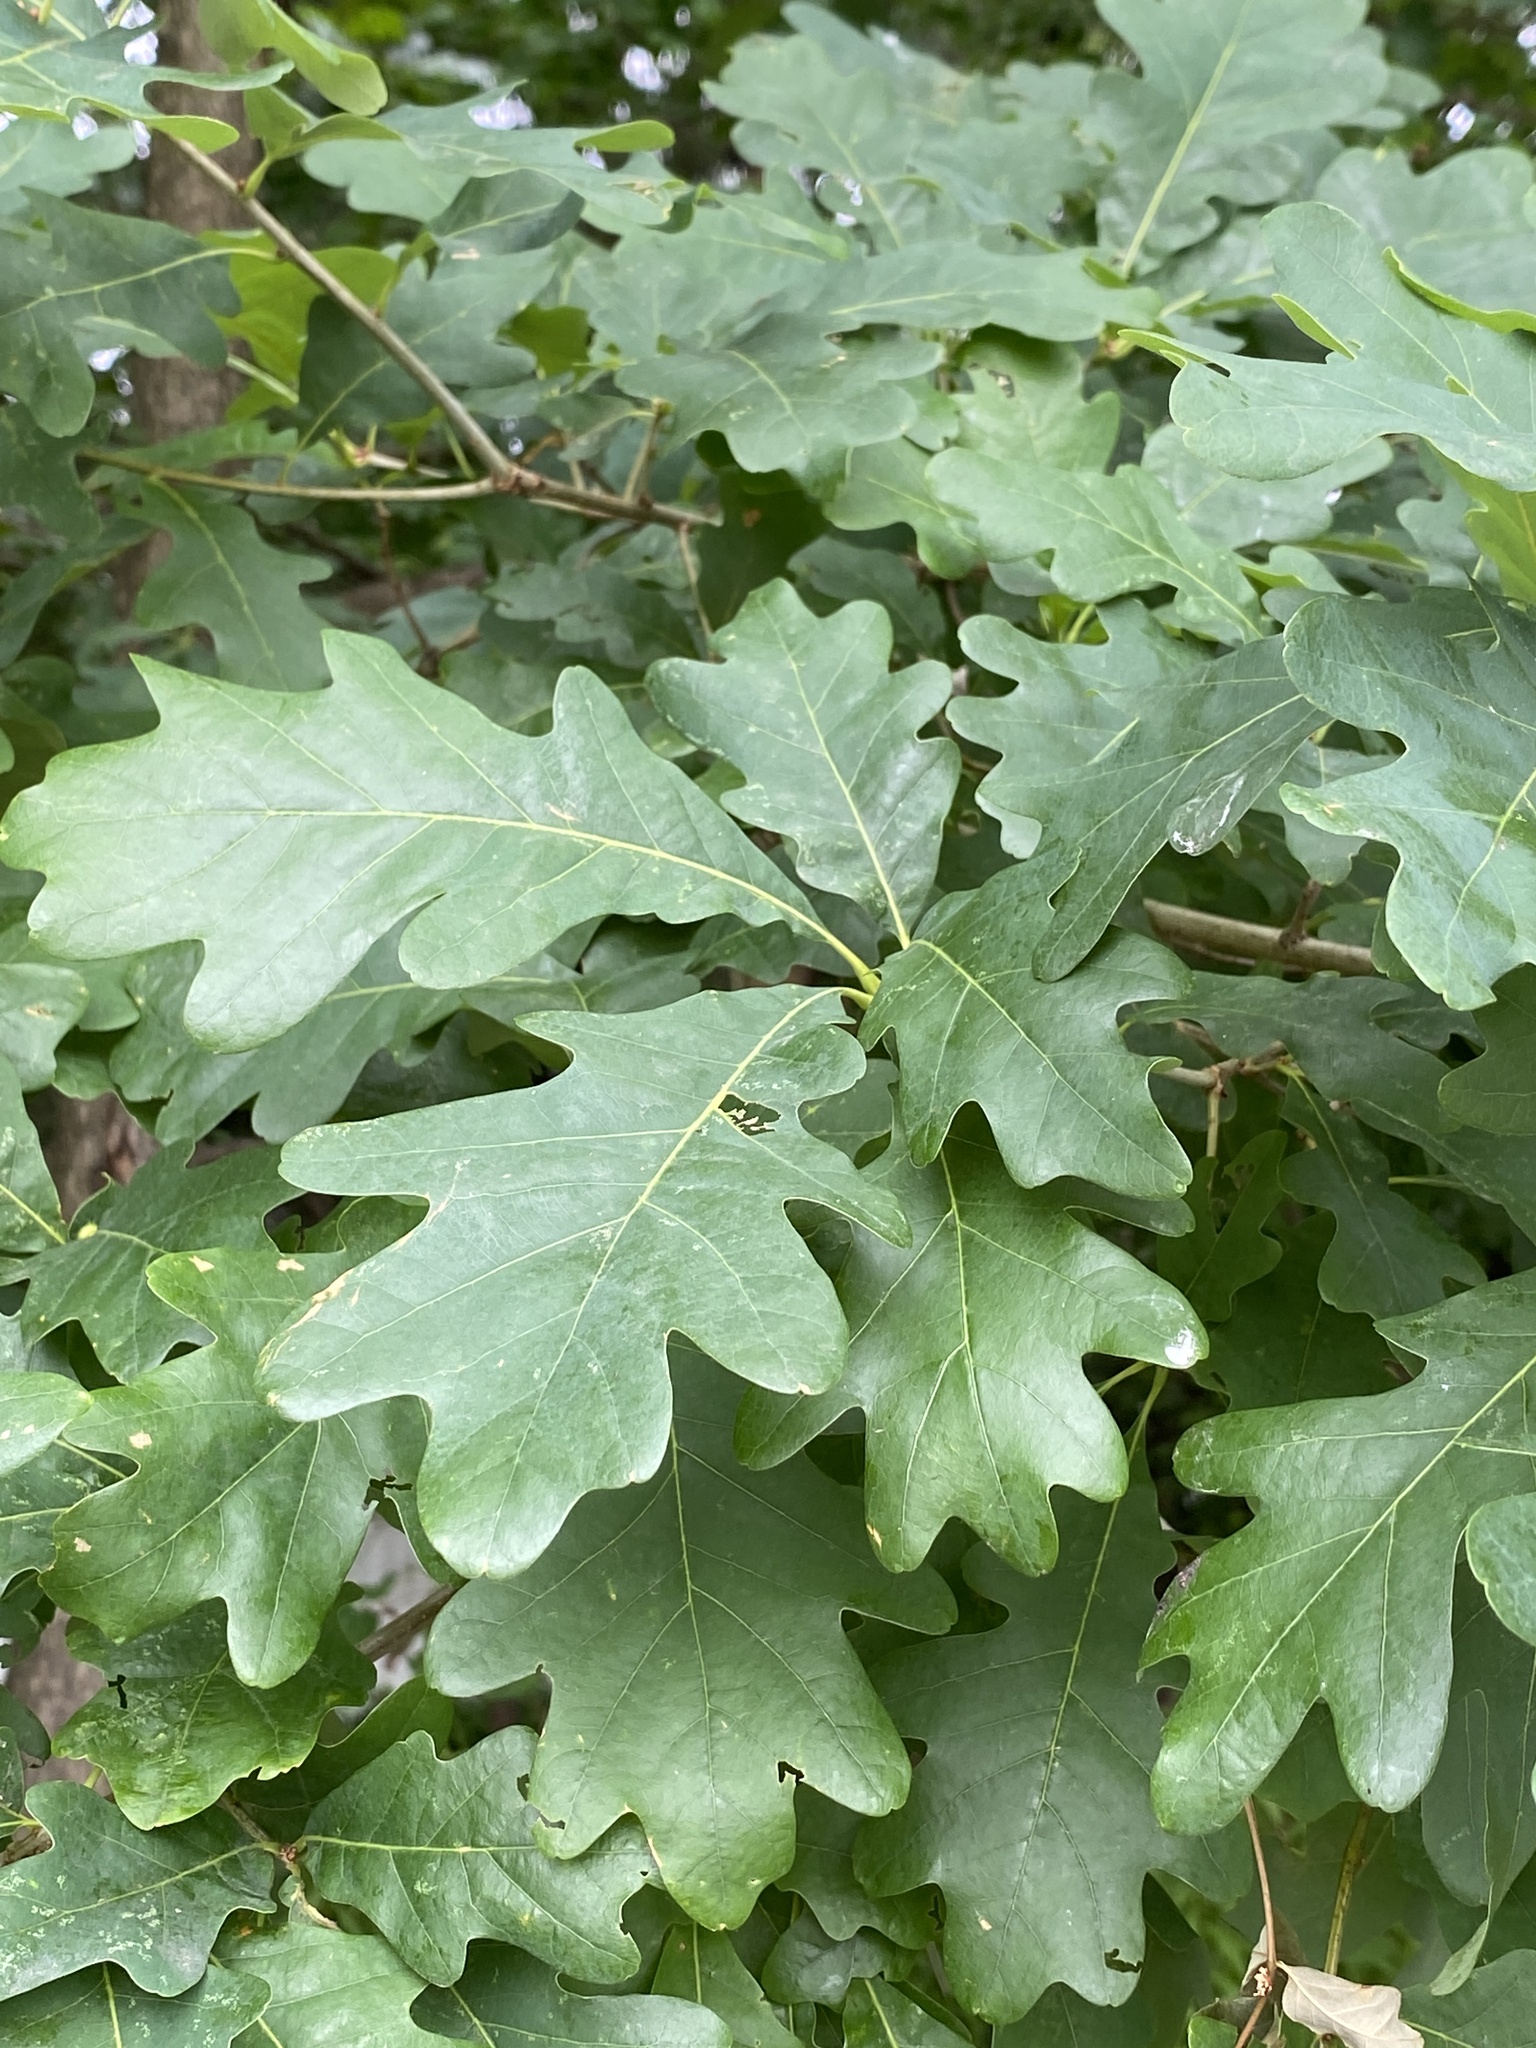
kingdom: Plantae
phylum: Tracheophyta
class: Magnoliopsida
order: Fagales
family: Fagaceae
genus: Quercus
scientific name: Quercus alba
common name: White oak
